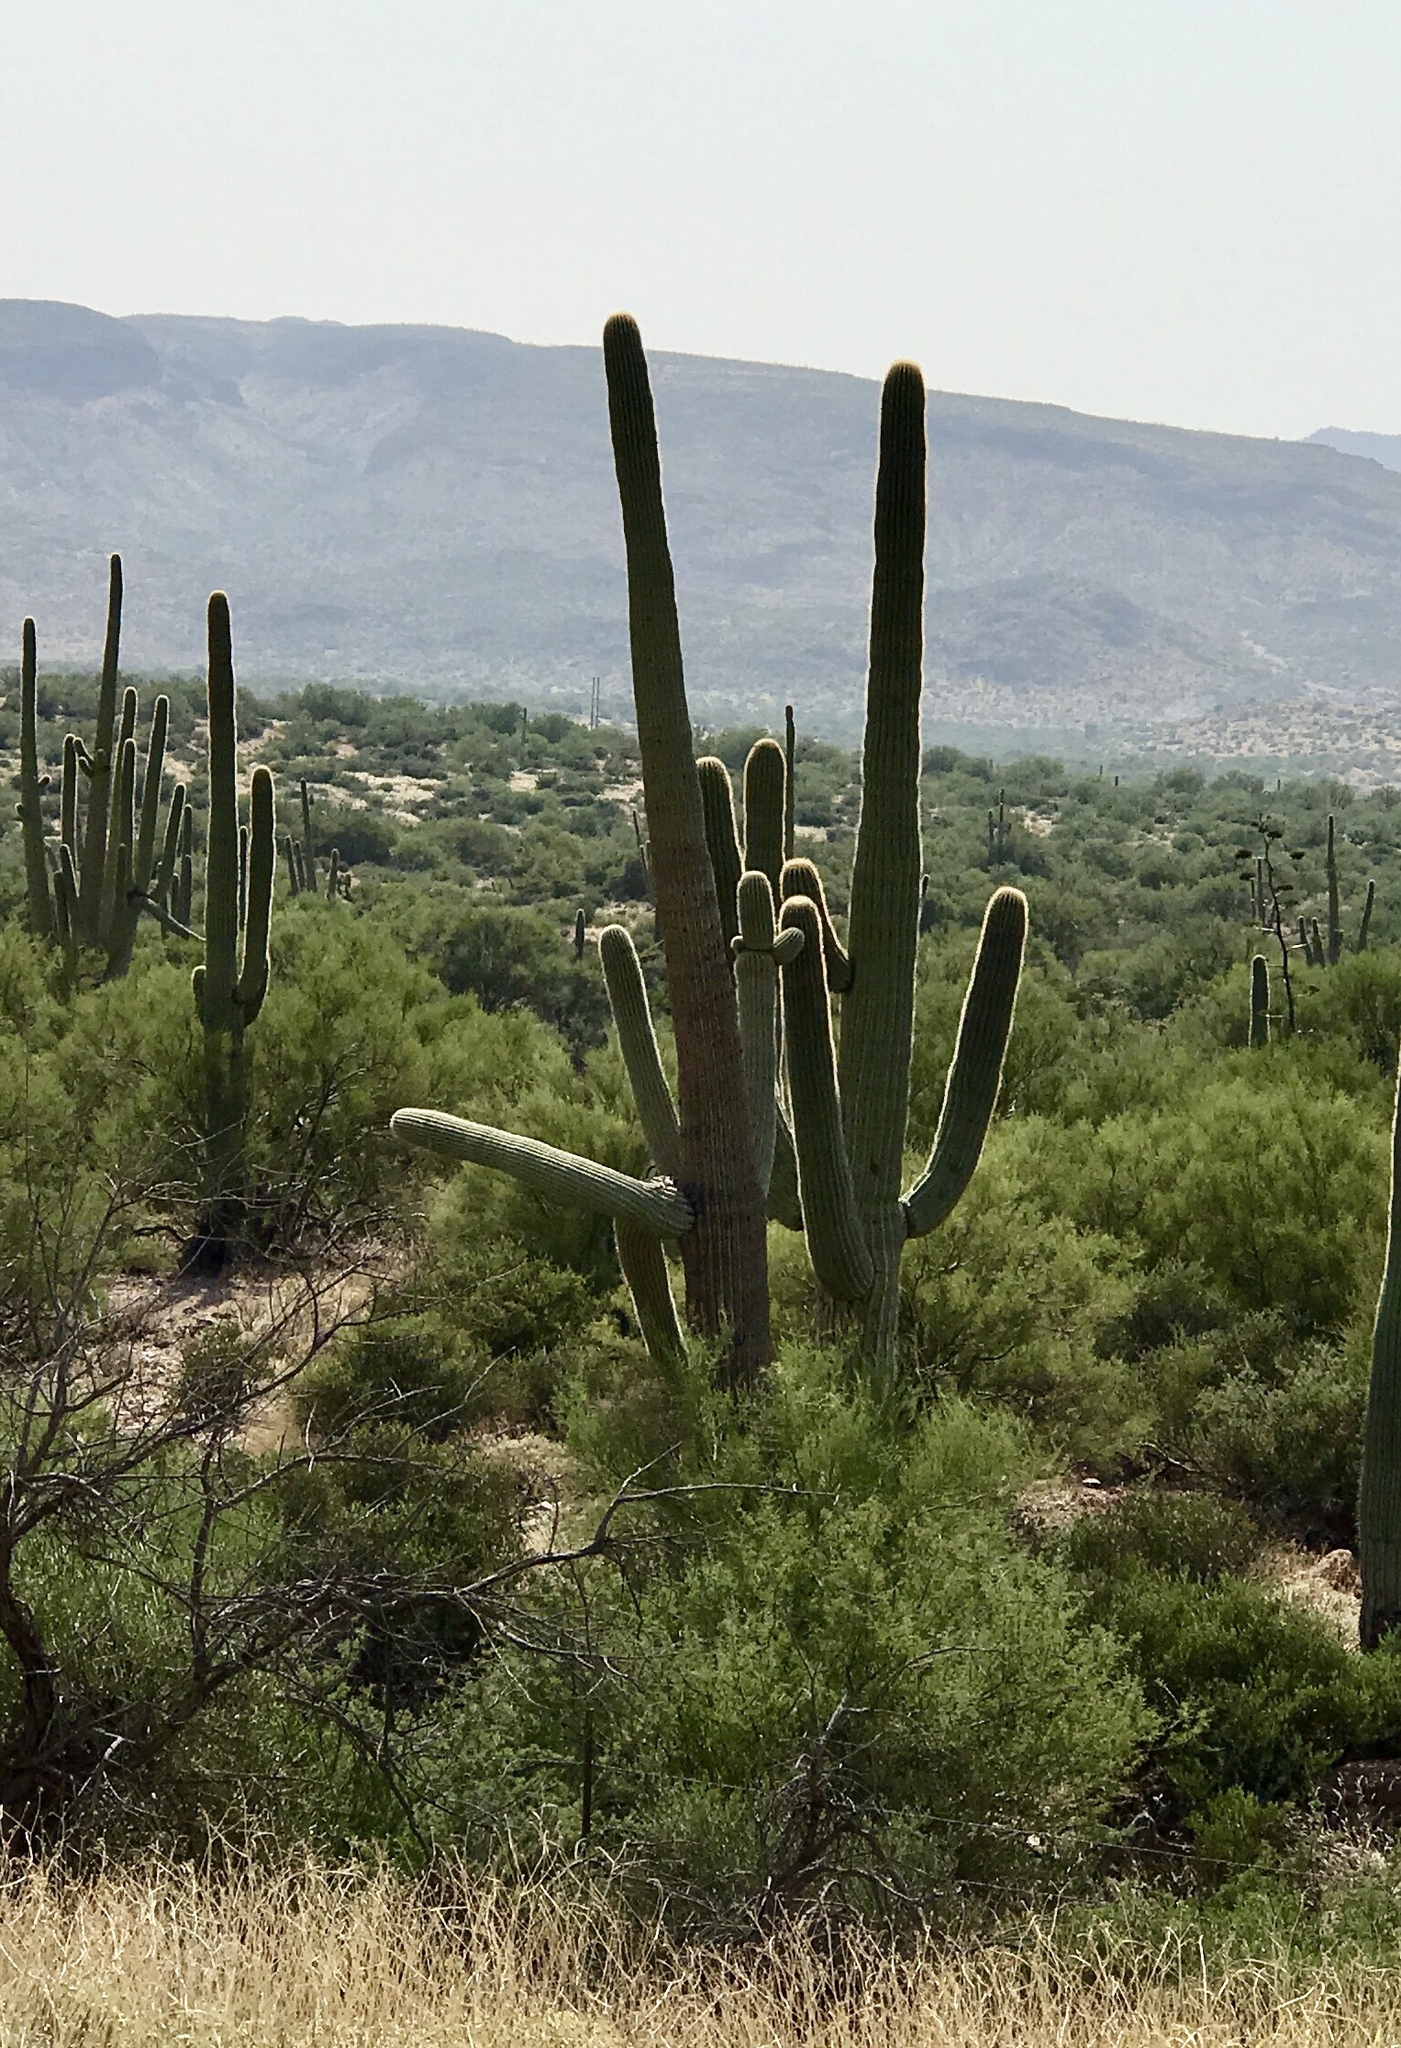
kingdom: Plantae
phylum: Tracheophyta
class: Magnoliopsida
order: Caryophyllales
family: Cactaceae
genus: Carnegiea
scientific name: Carnegiea gigantea
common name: Saguaro
